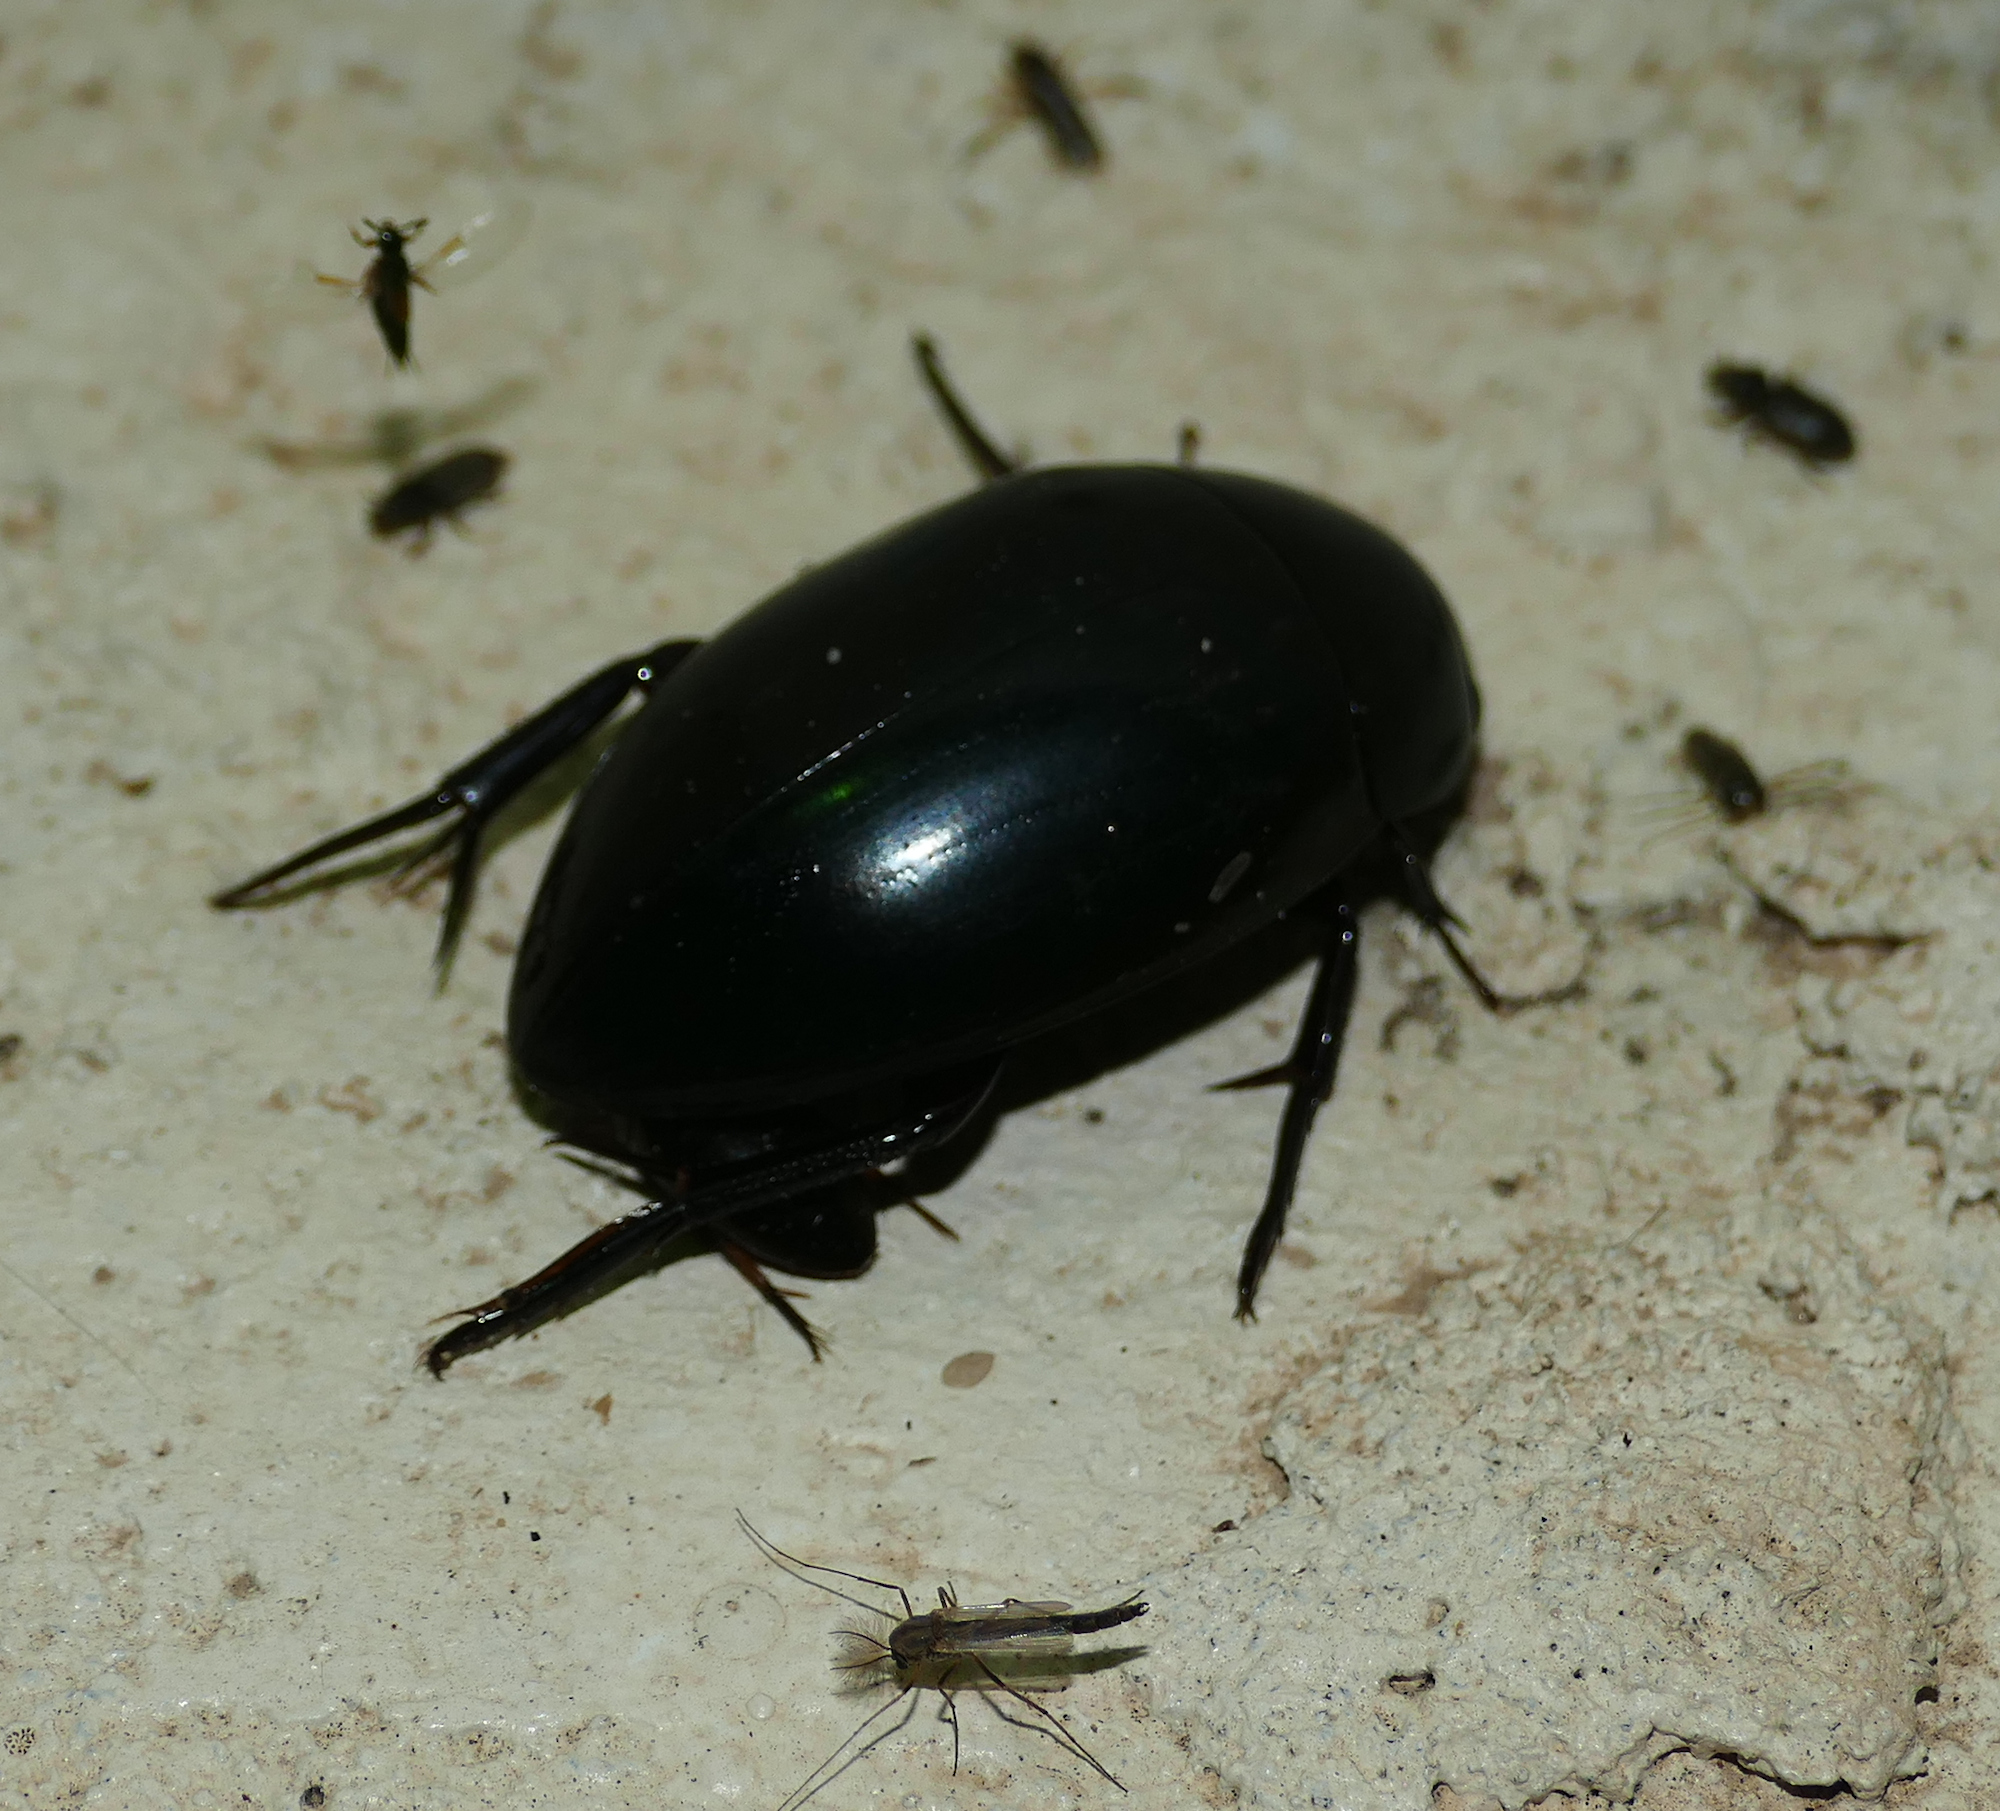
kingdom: Animalia
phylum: Arthropoda
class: Insecta
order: Coleoptera
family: Hydrophilidae
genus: Hydrophilus
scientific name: Hydrophilus
